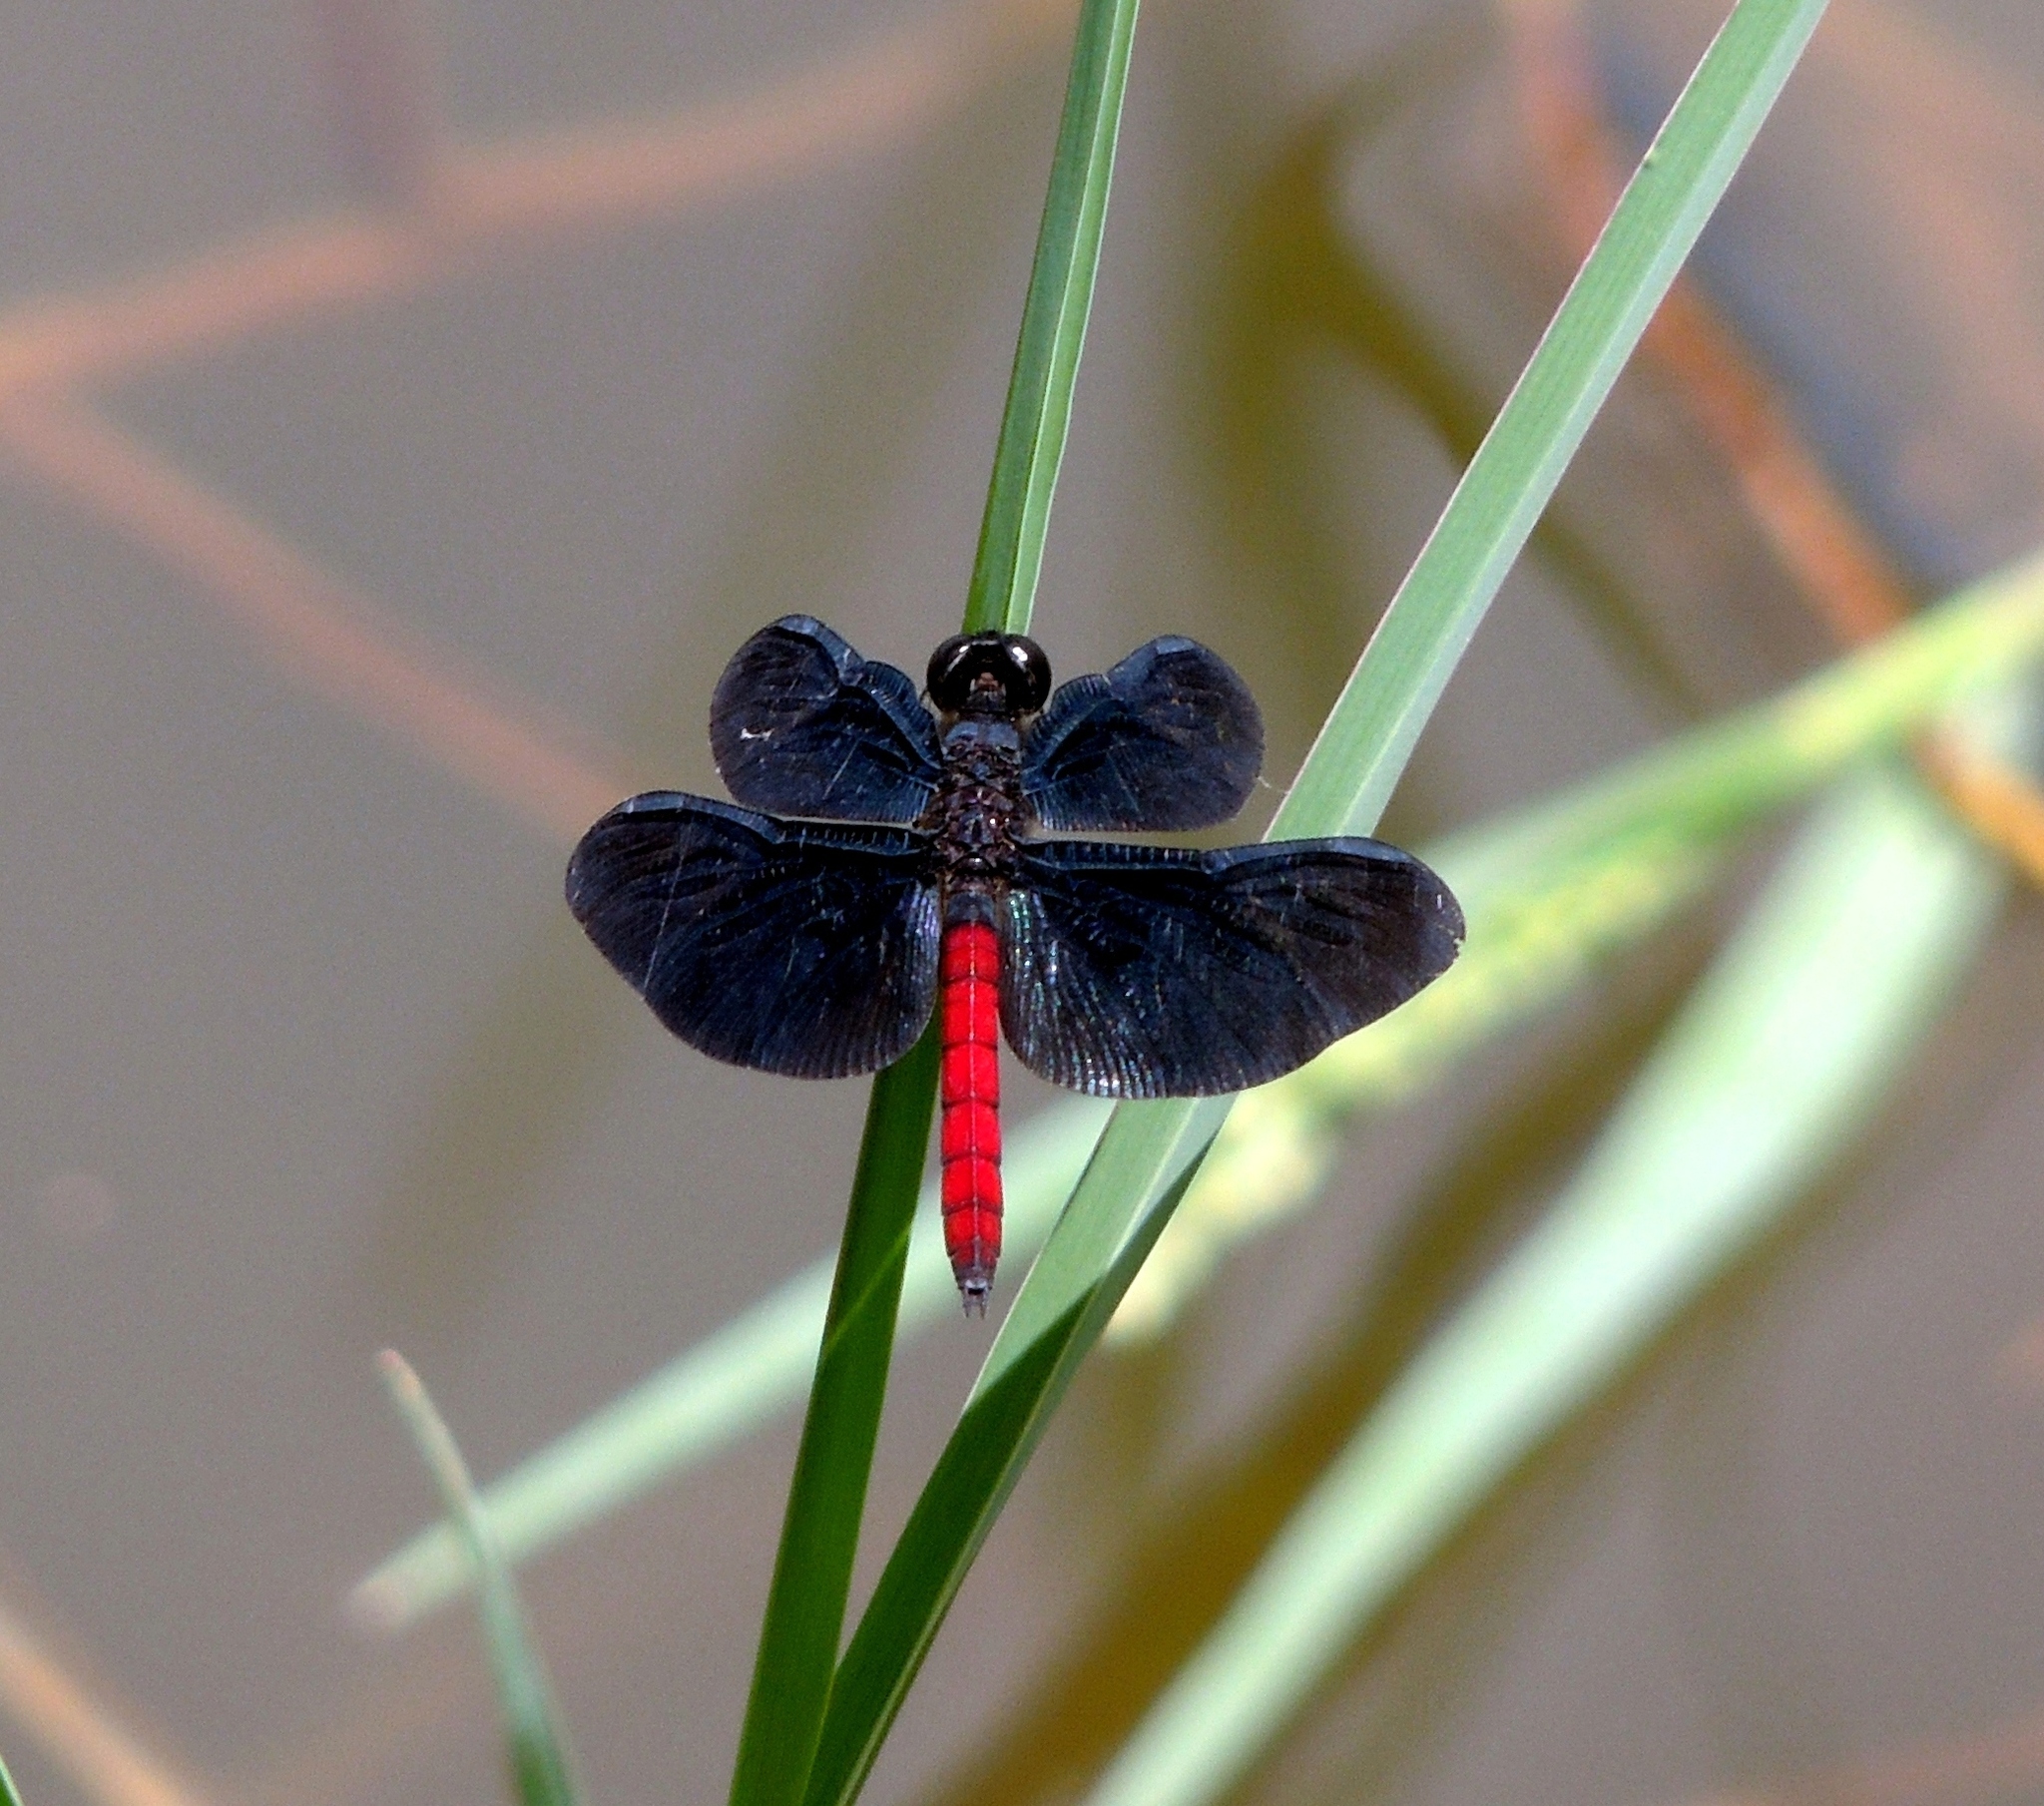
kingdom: Animalia
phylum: Arthropoda
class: Insecta
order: Odonata
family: Libellulidae
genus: Diastatops
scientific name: Diastatops obscura
